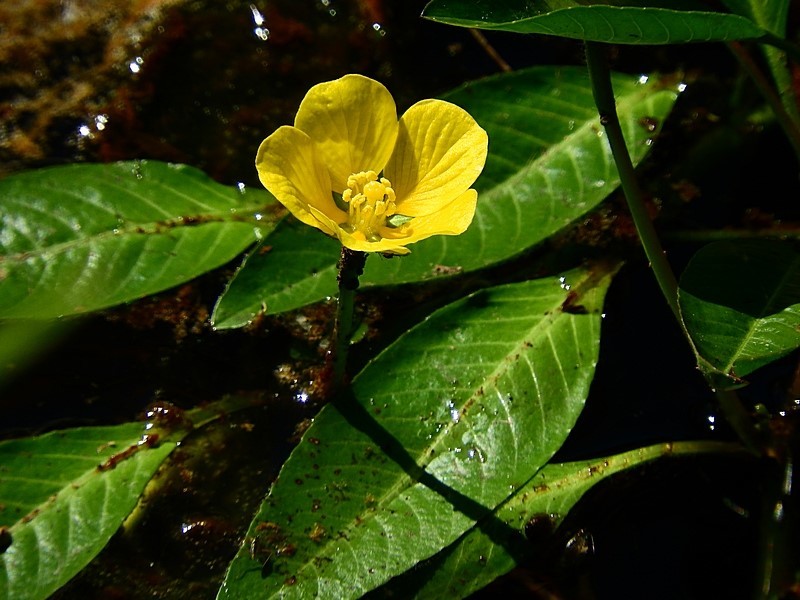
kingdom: Plantae
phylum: Tracheophyta
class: Magnoliopsida
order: Myrtales
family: Onagraceae
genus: Ludwigia
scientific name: Ludwigia peploides
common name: Floating primrose-willow
